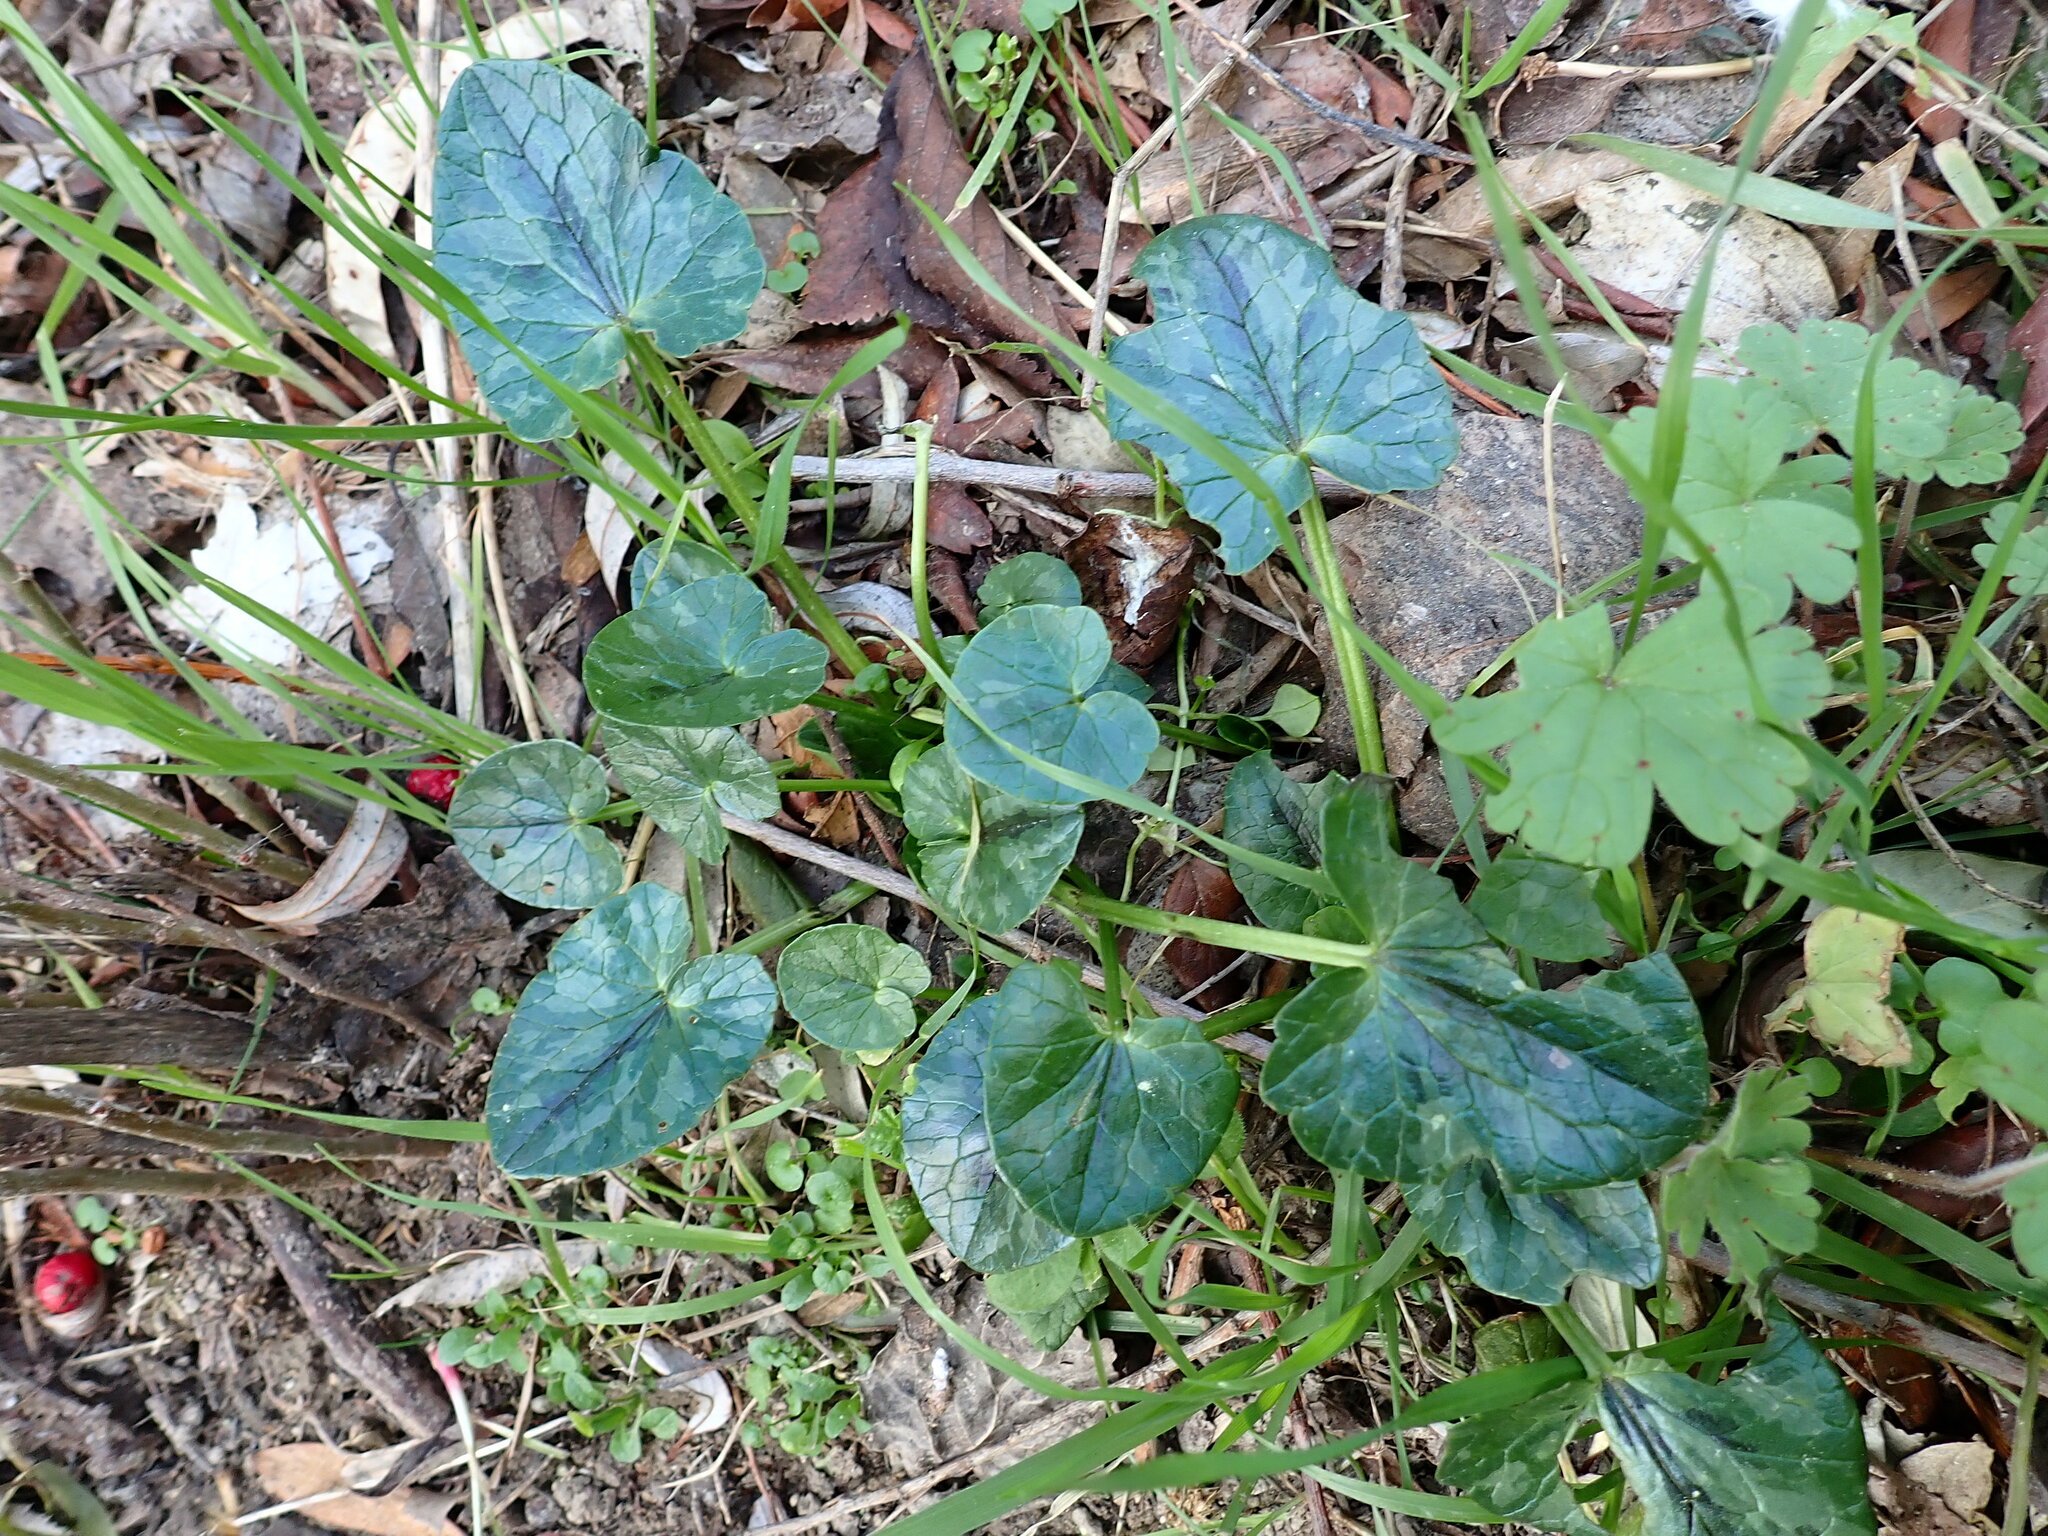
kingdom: Plantae
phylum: Tracheophyta
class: Magnoliopsida
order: Ranunculales
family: Ranunculaceae
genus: Ficaria
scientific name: Ficaria verna
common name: Lesser celandine
